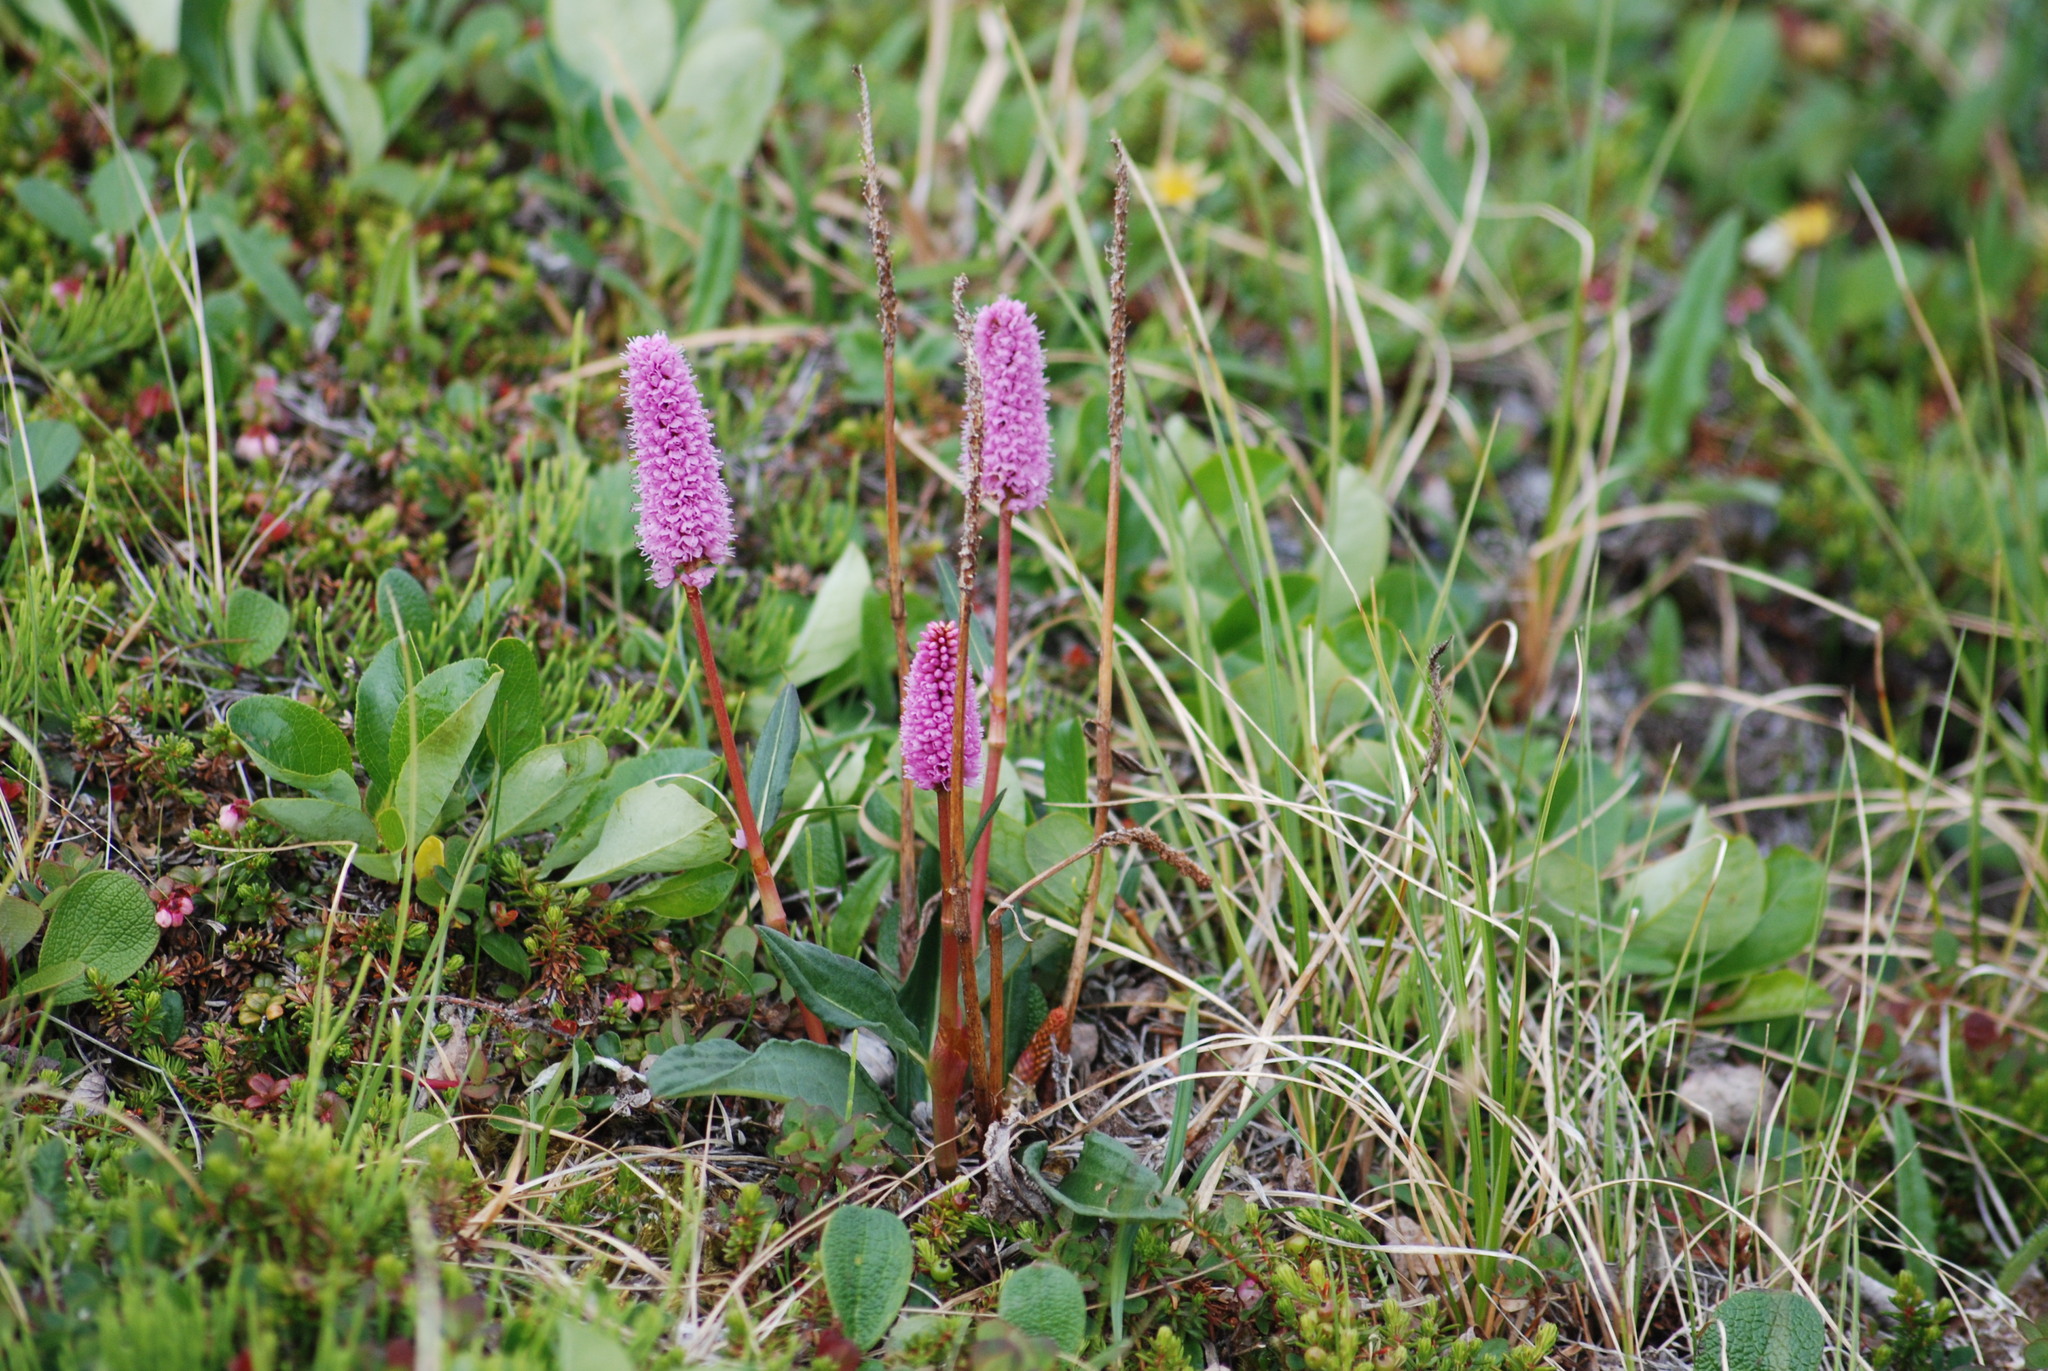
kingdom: Plantae
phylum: Tracheophyta
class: Magnoliopsida
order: Caryophyllales
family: Polygonaceae
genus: Bistorta
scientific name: Bistorta plumosa
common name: Meadow bistort
